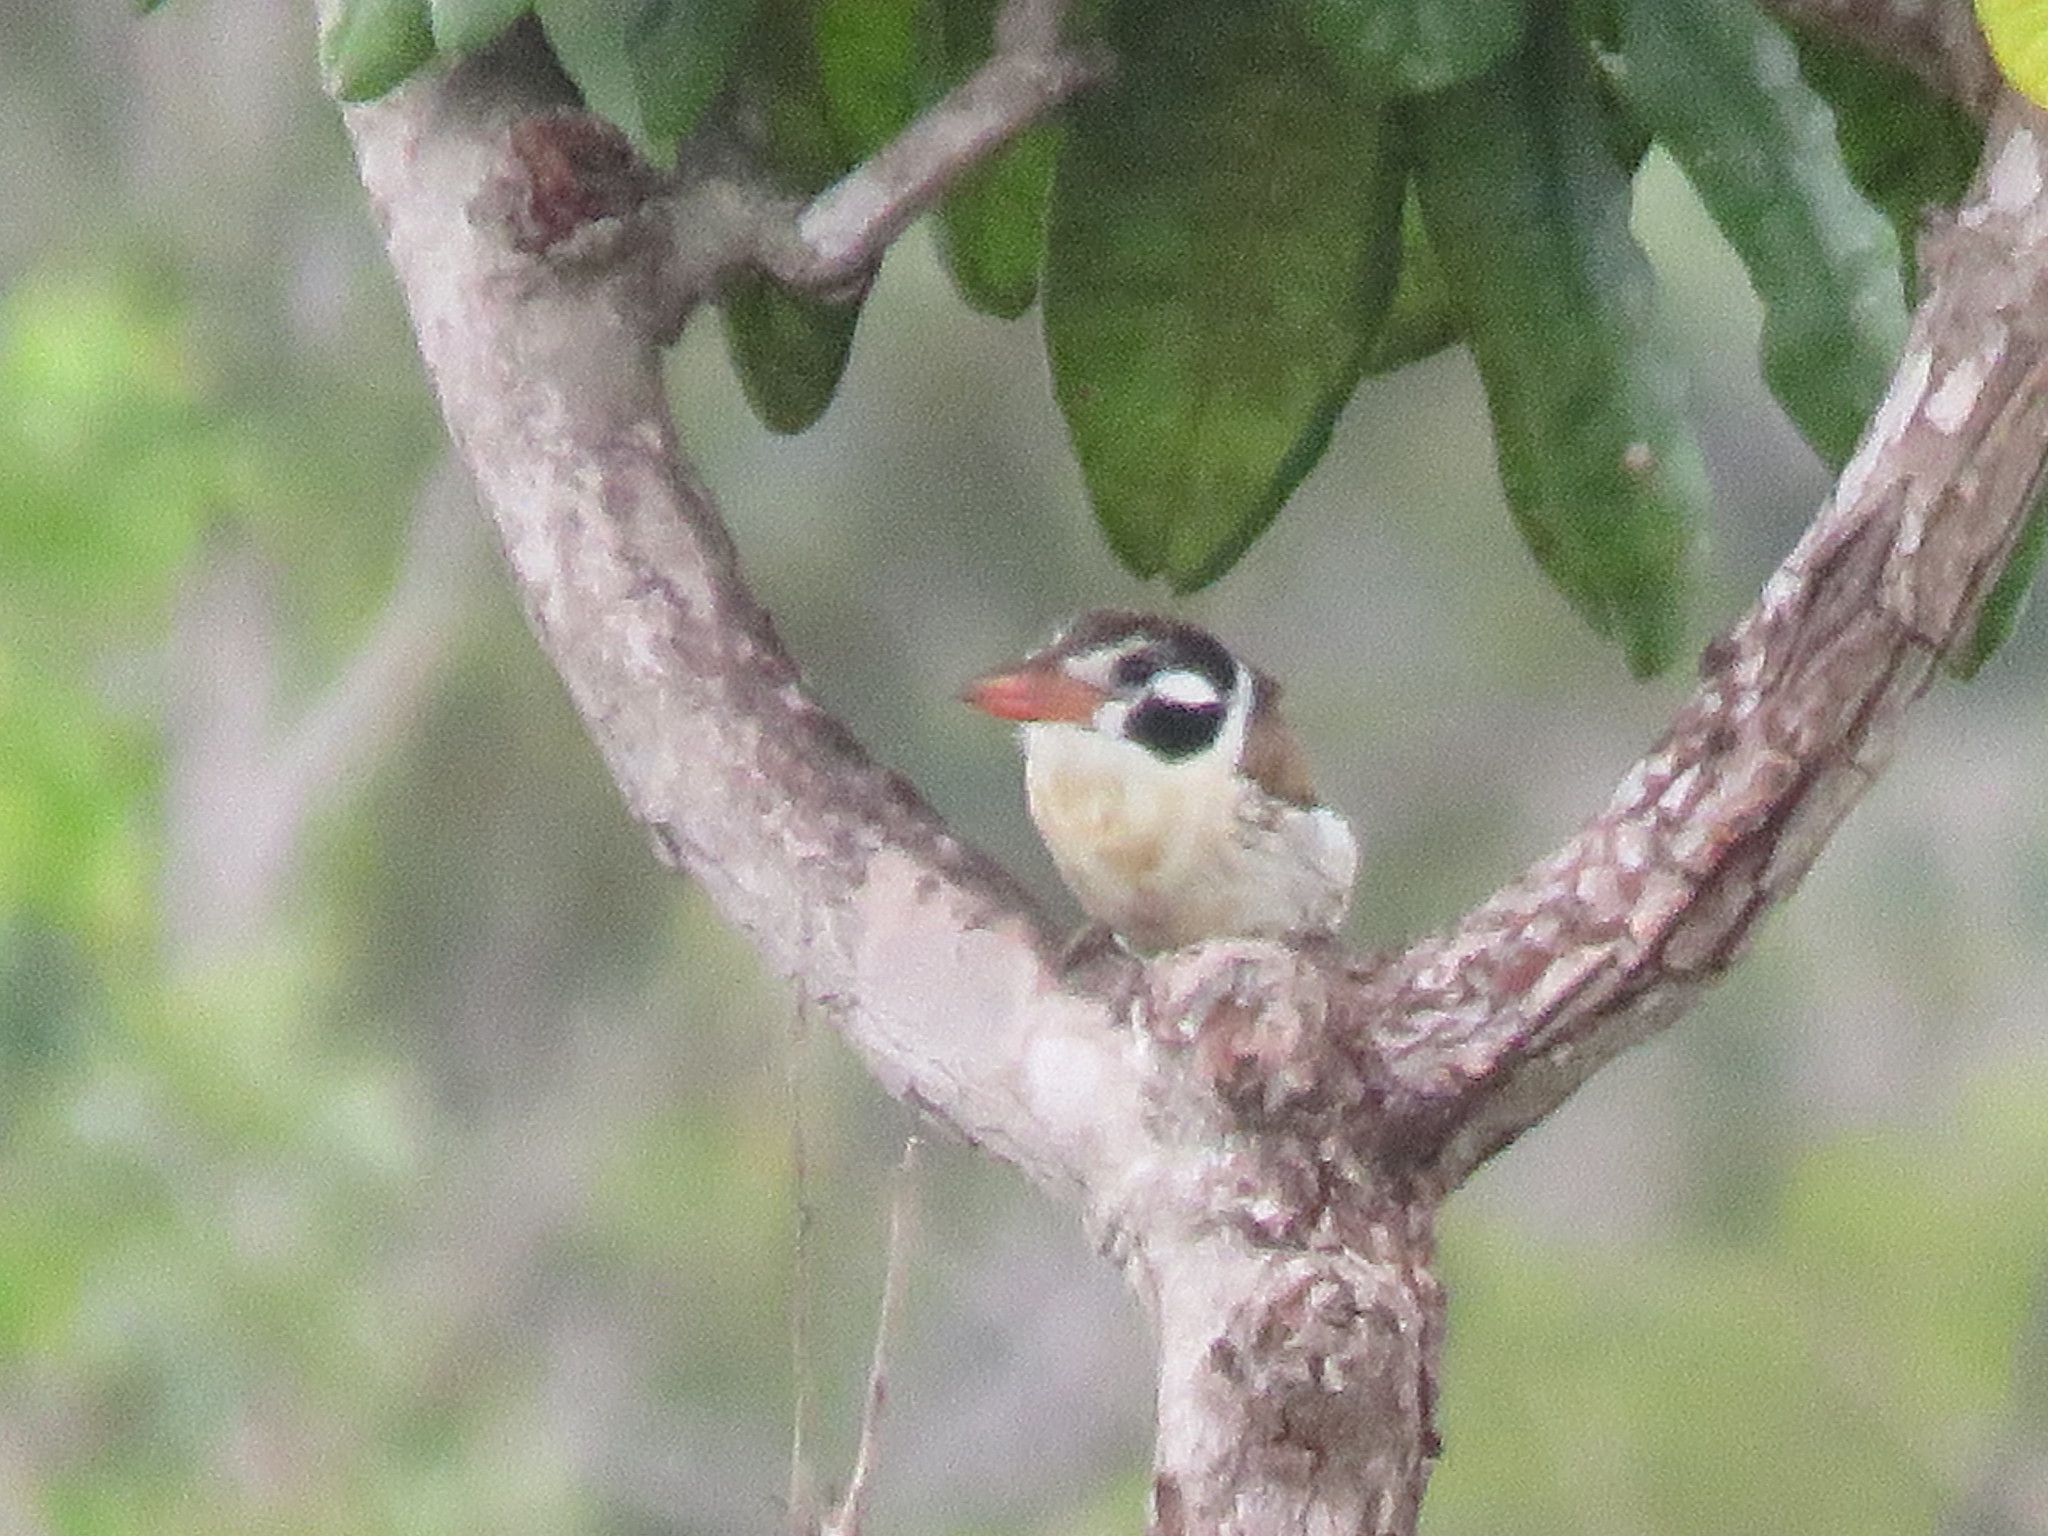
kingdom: Animalia
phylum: Chordata
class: Aves
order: Piciformes
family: Bucconidae
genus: Nystalus
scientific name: Nystalus chacuru
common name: White-eared puffbird
